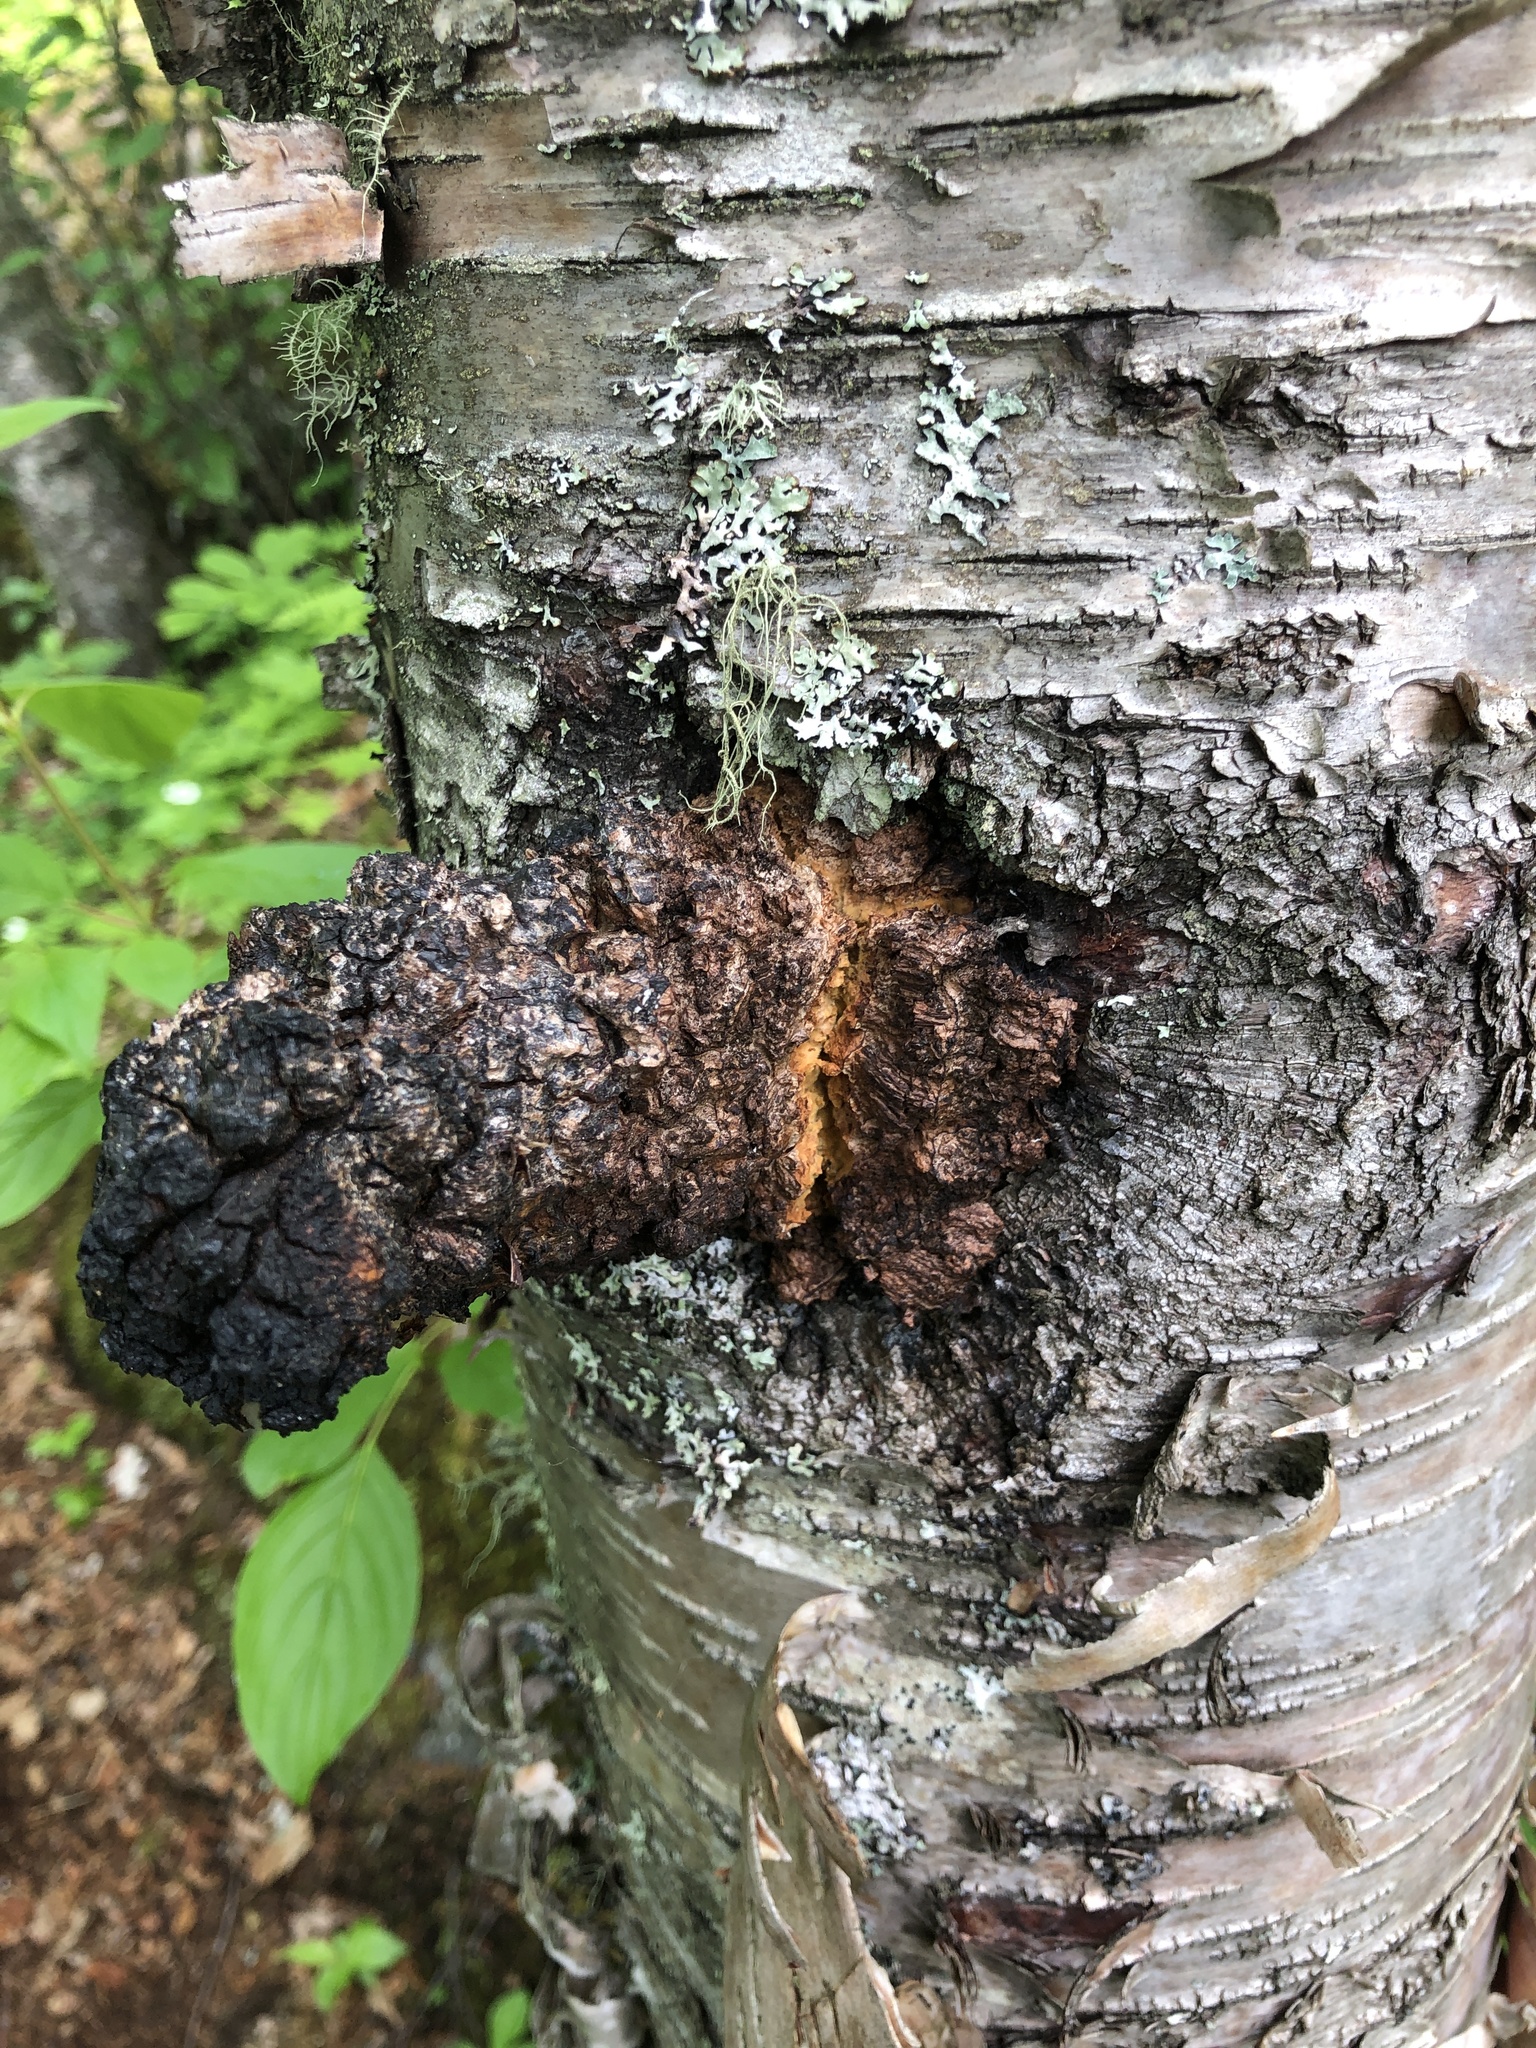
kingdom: Fungi
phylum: Basidiomycota
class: Agaricomycetes
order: Hymenochaetales
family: Hymenochaetaceae
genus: Inonotus
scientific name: Inonotus obliquus
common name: Chaga
